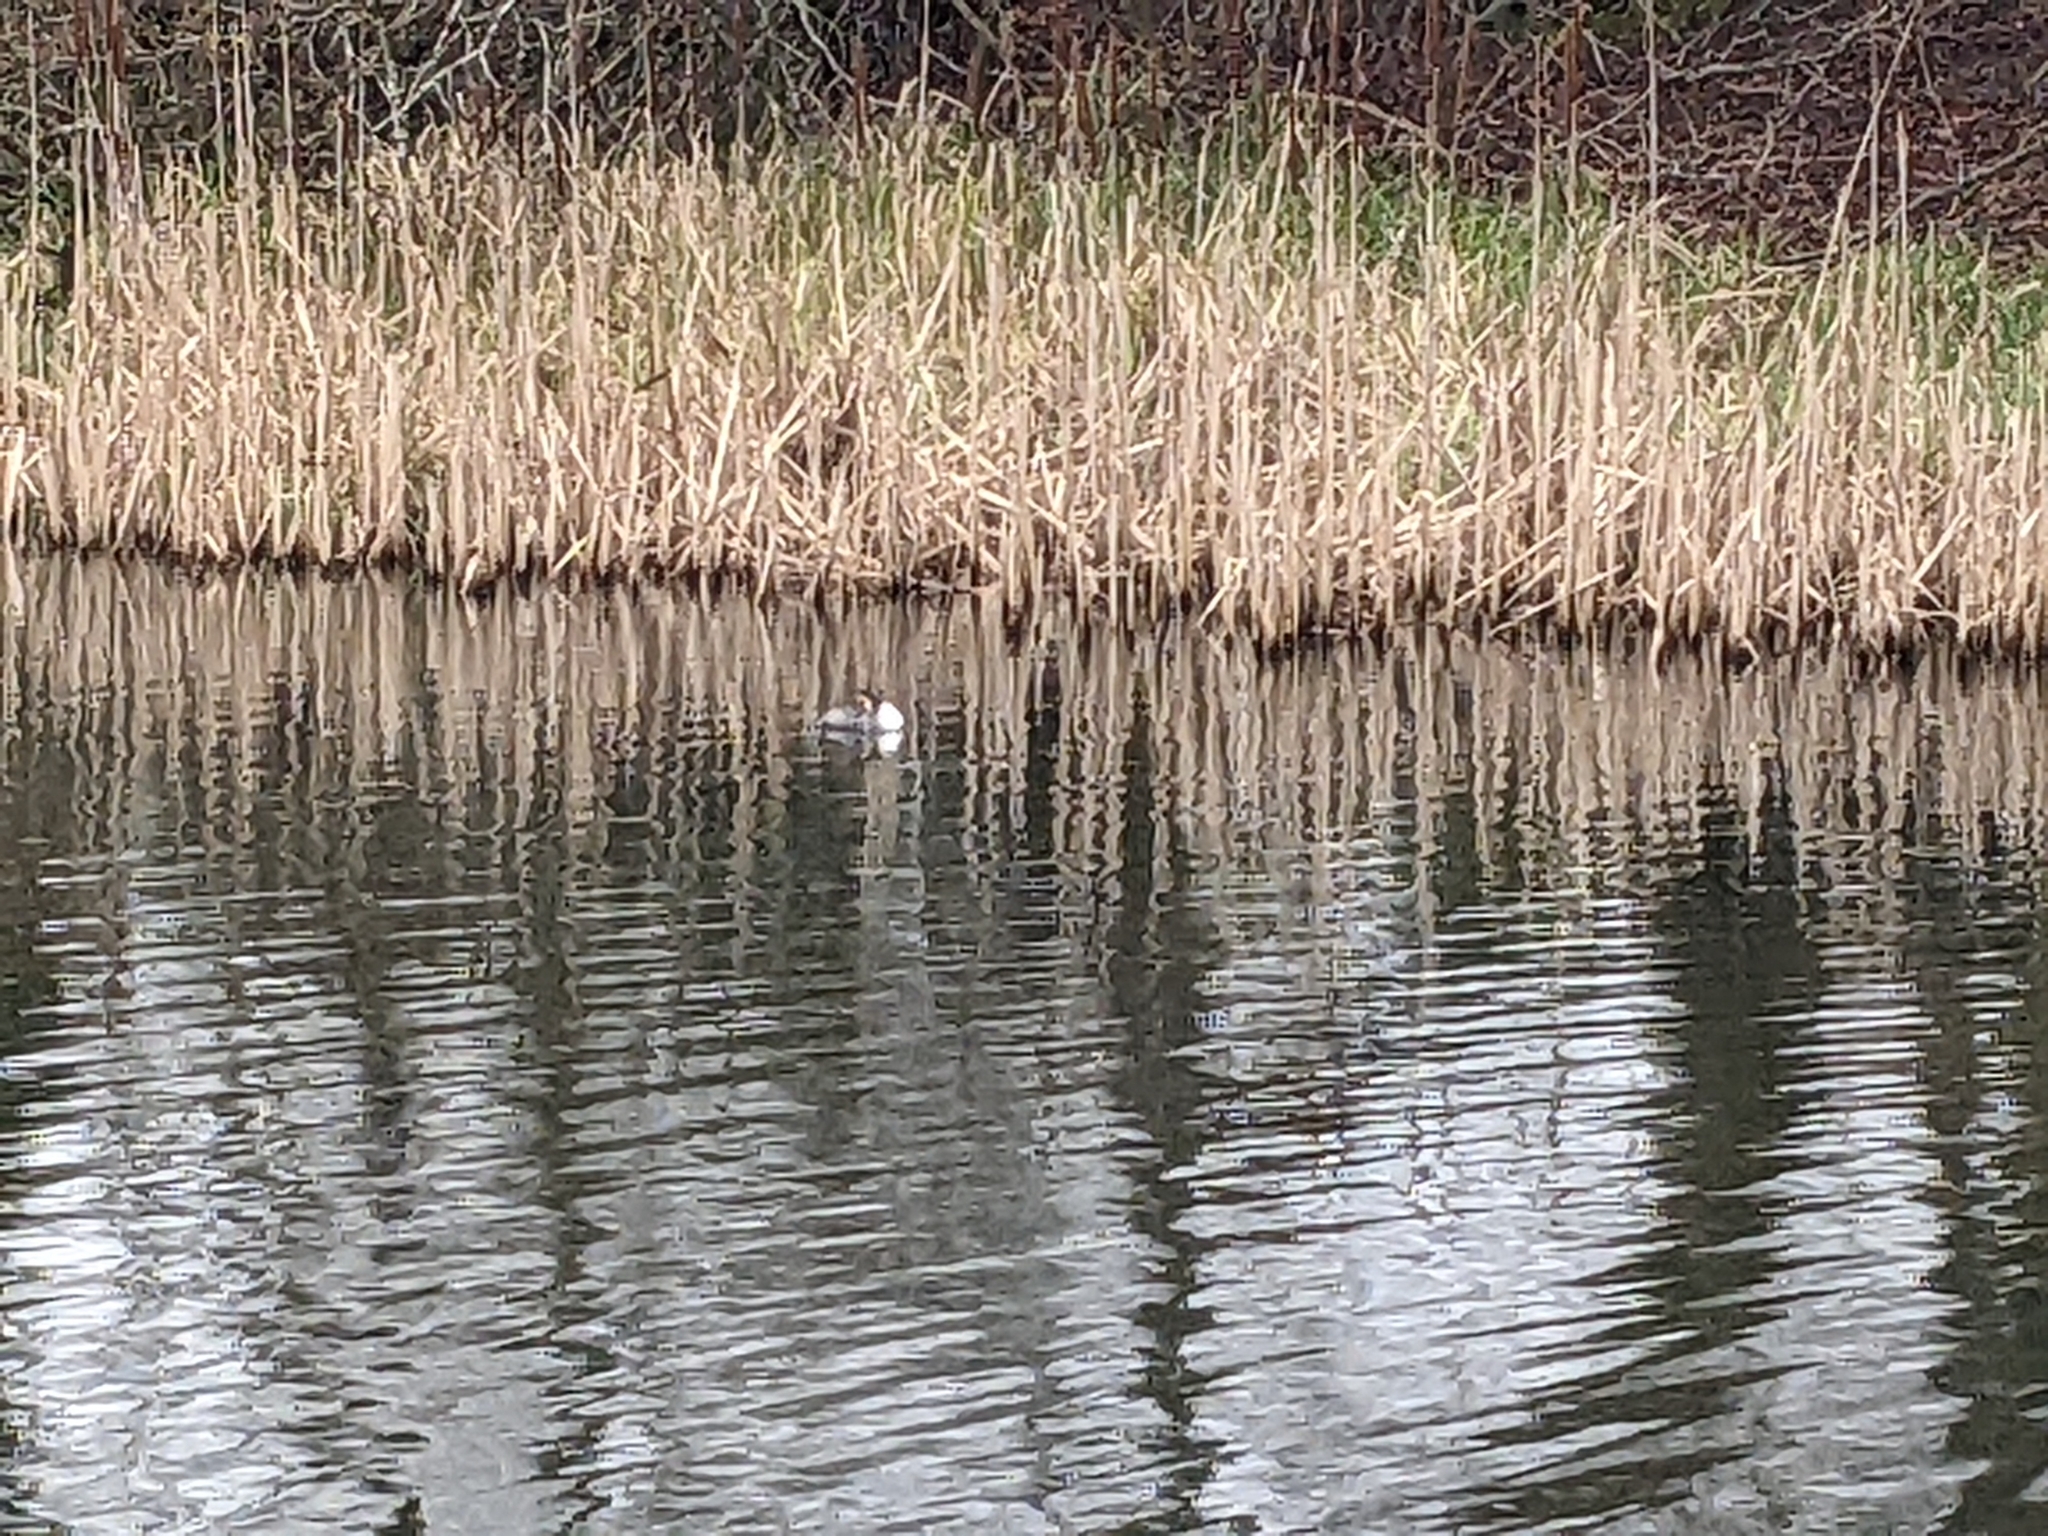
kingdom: Animalia
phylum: Chordata
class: Aves
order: Podicipediformes
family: Podicipedidae
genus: Podiceps
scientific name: Podiceps cristatus
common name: Great crested grebe
